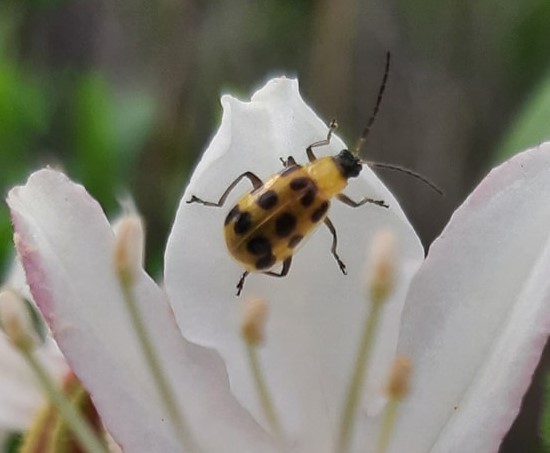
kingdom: Animalia
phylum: Arthropoda
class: Insecta
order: Coleoptera
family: Chrysomelidae
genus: Diabrotica
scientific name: Diabrotica undecimpunctata
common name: Spotted cucumber beetle
